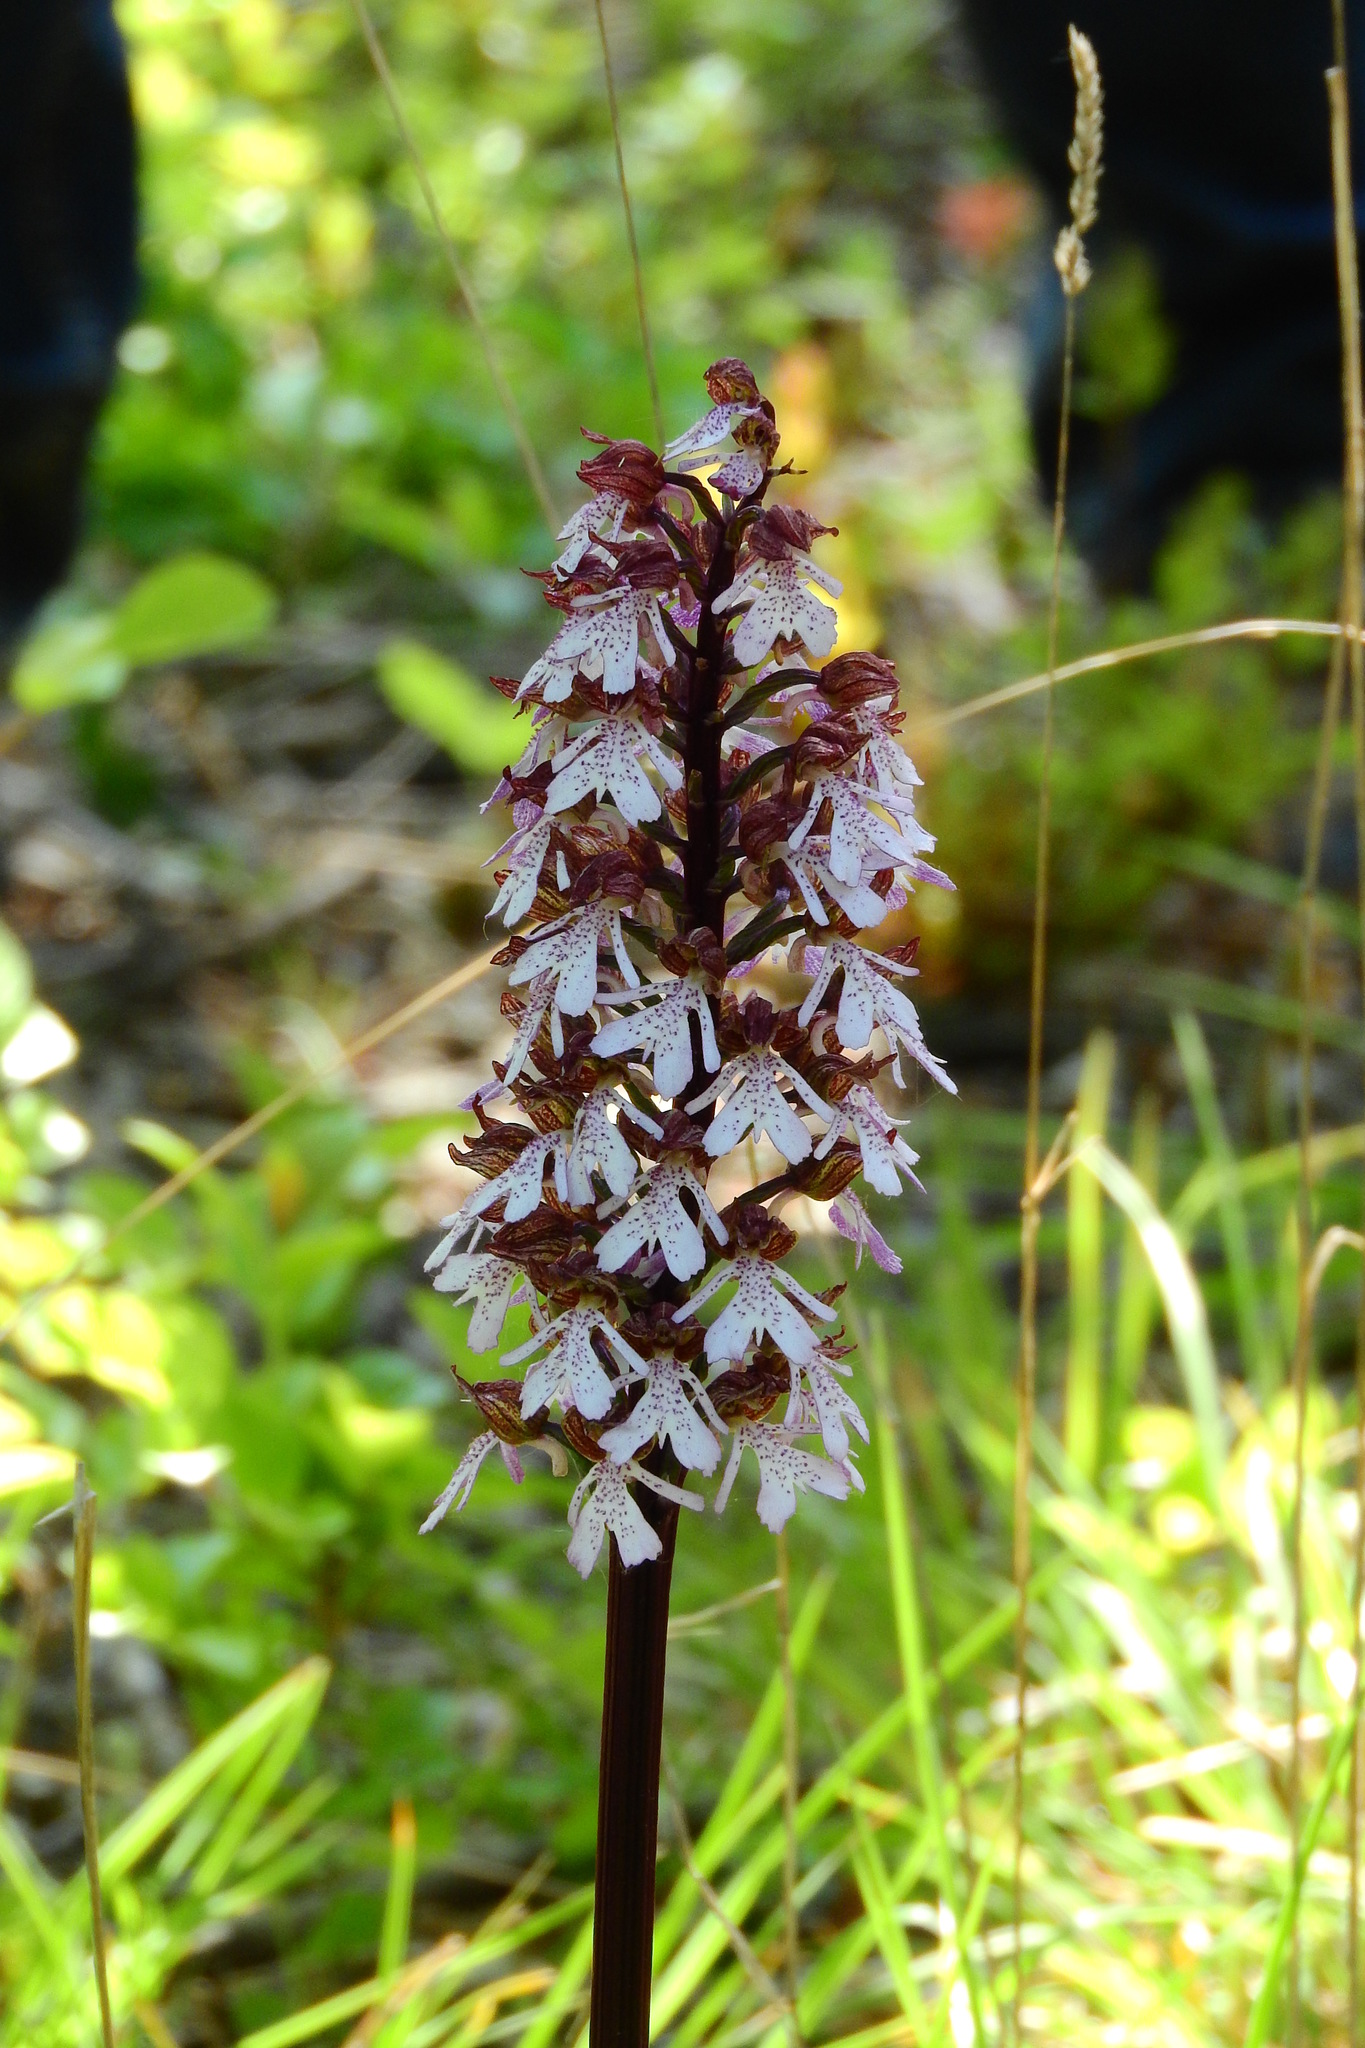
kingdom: Plantae
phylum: Tracheophyta
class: Liliopsida
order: Asparagales
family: Orchidaceae
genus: Orchis
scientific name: Orchis purpurea
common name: Lady orchid
